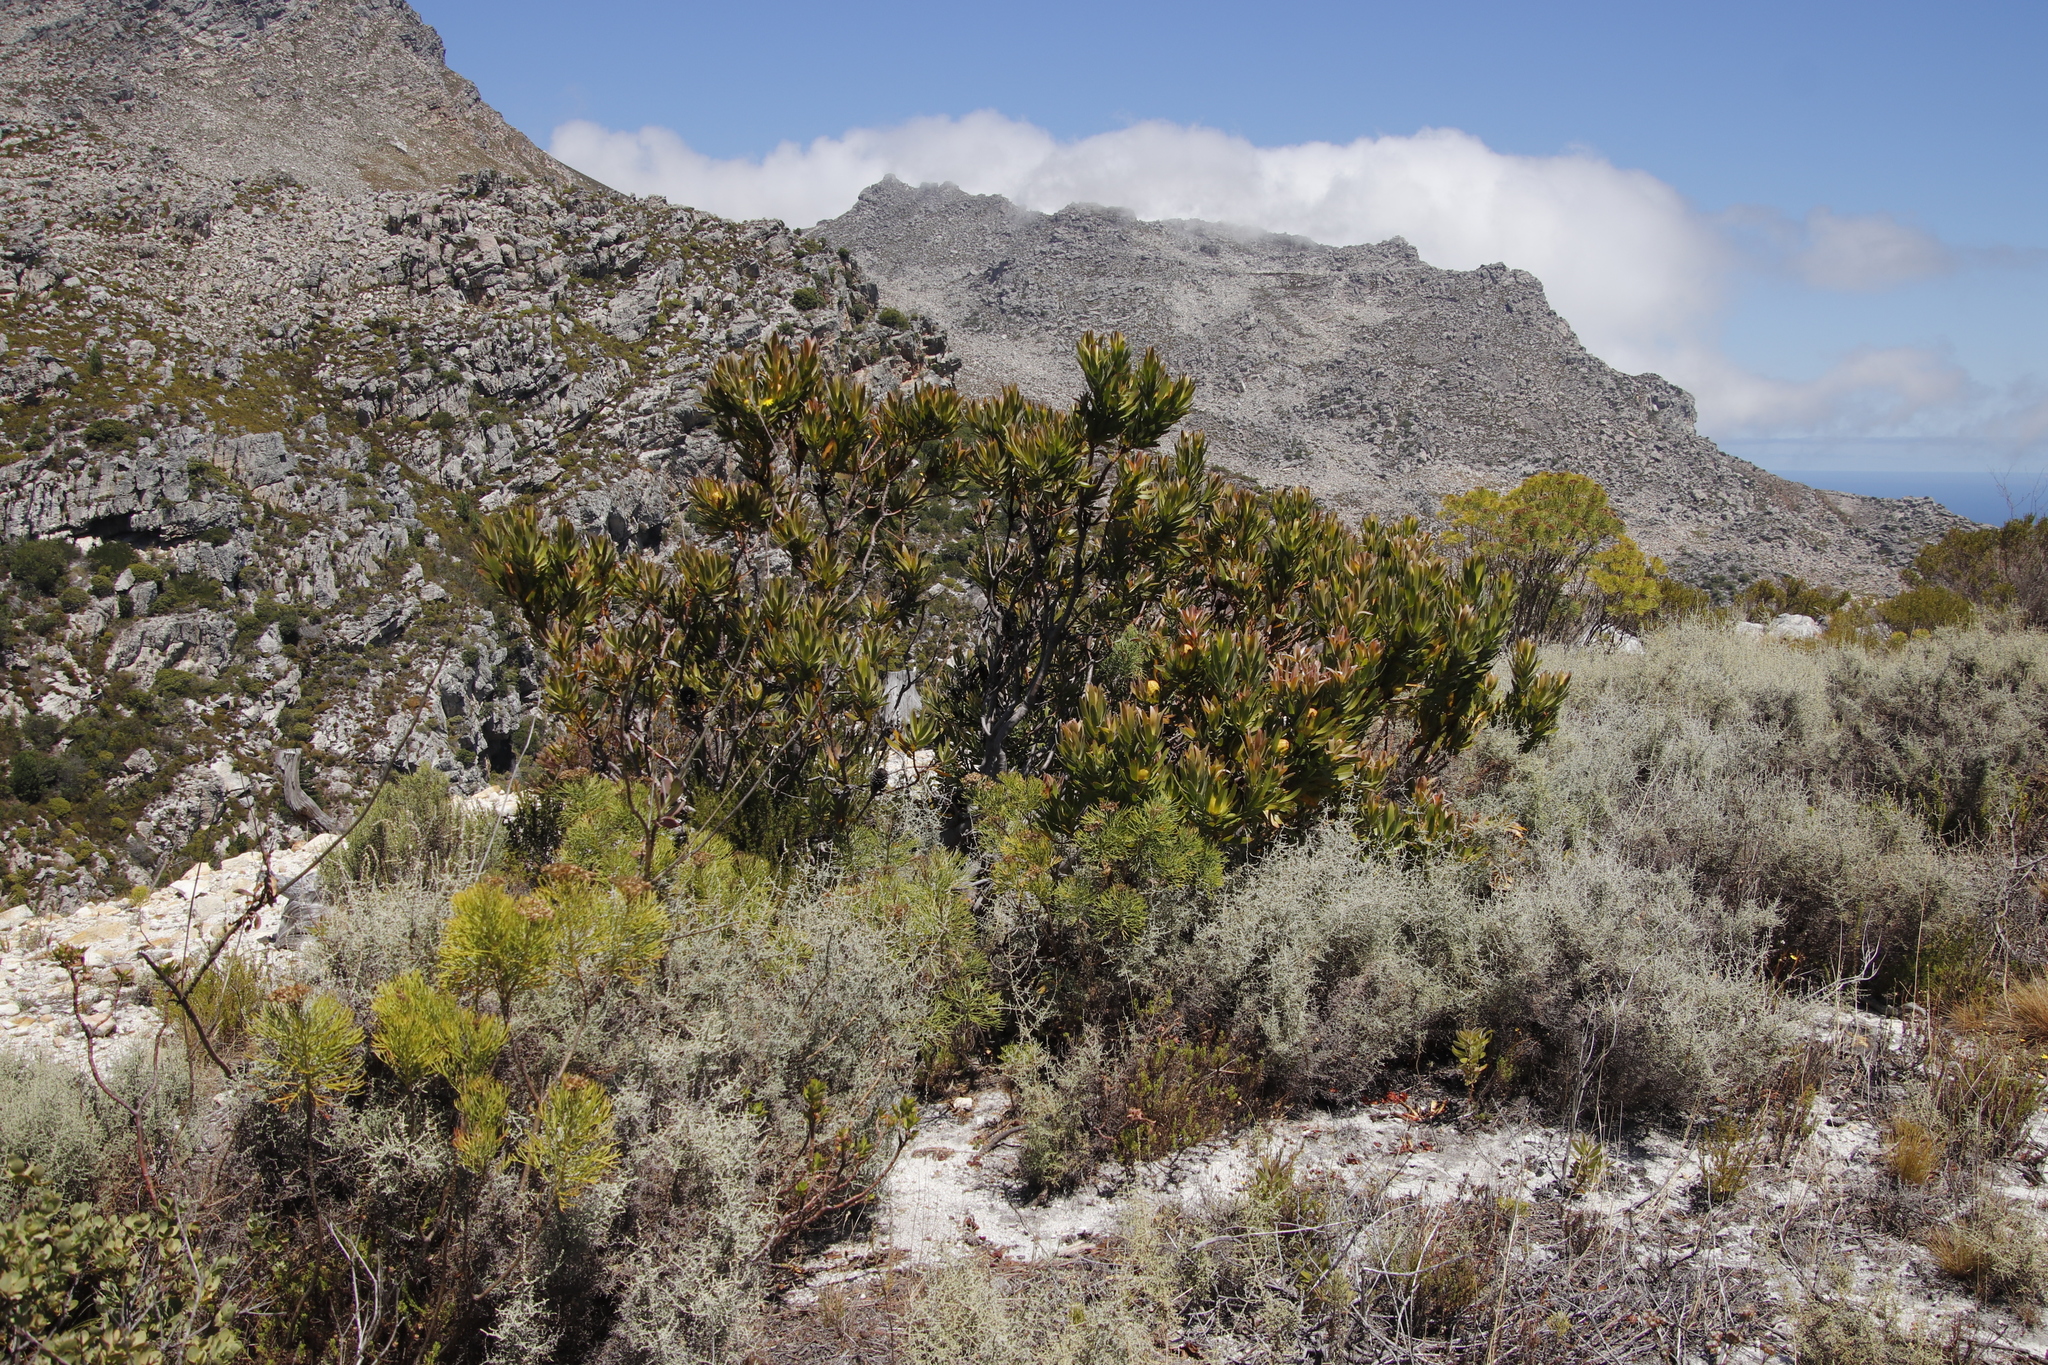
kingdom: Plantae
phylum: Tracheophyta
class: Magnoliopsida
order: Proteales
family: Proteaceae
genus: Leucadendron
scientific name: Leucadendron laureolum
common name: Golden sunshinebush
